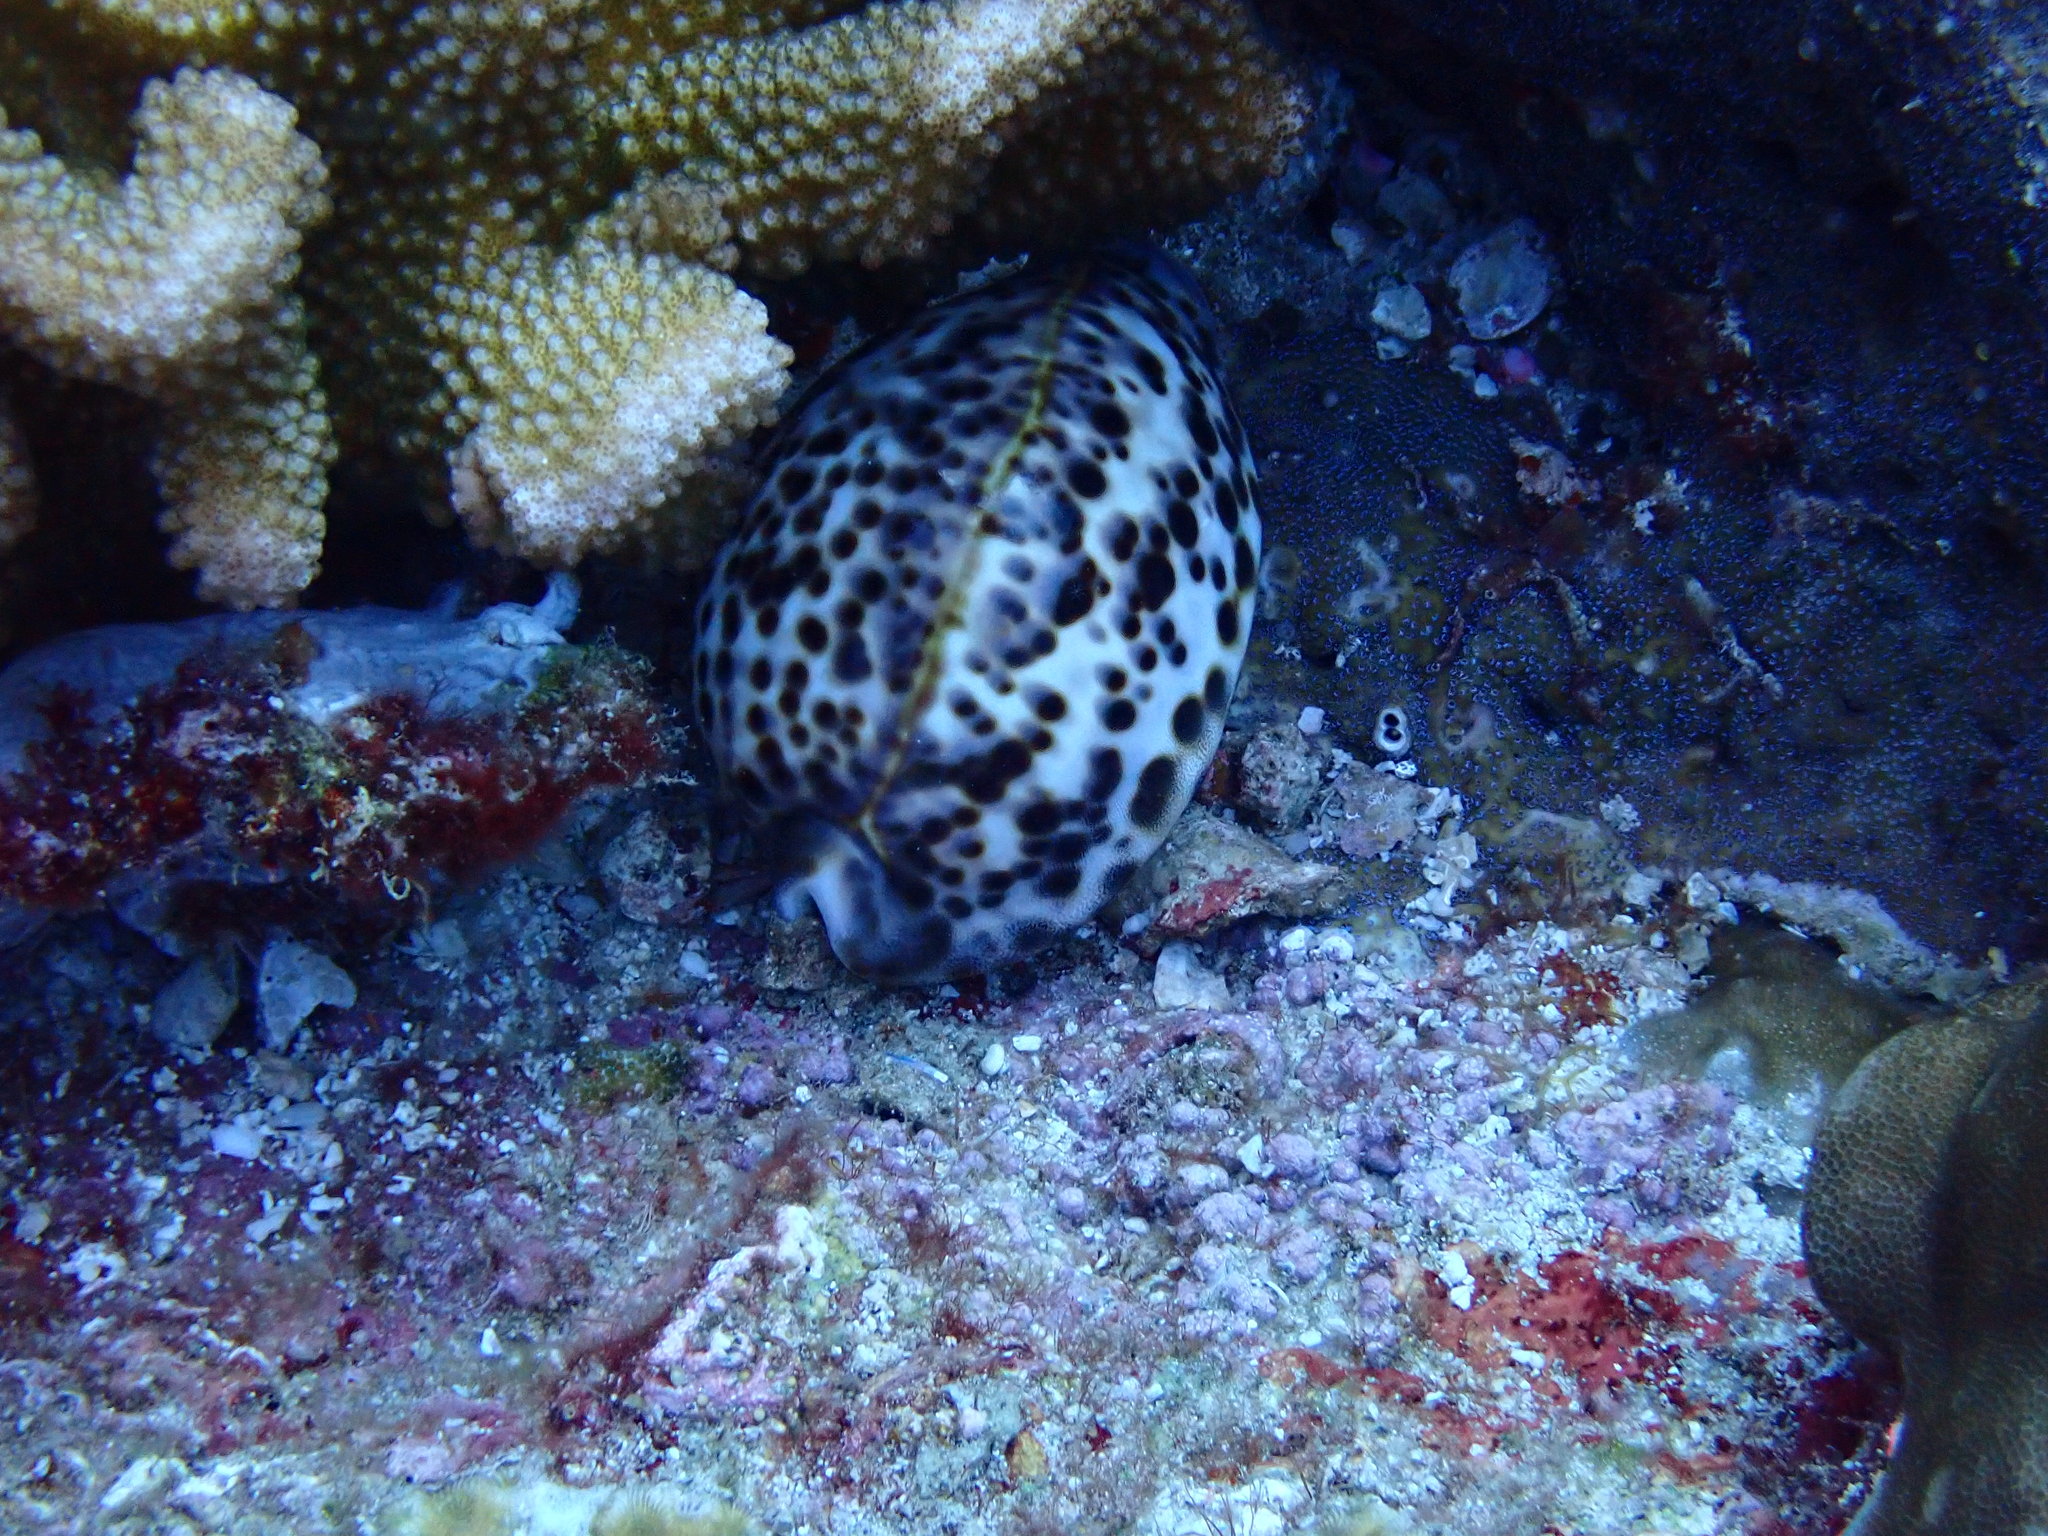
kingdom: Animalia
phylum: Mollusca
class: Gastropoda
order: Littorinimorpha
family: Cypraeidae
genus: Cypraea
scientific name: Cypraea tigris
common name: Tiger cowrie
